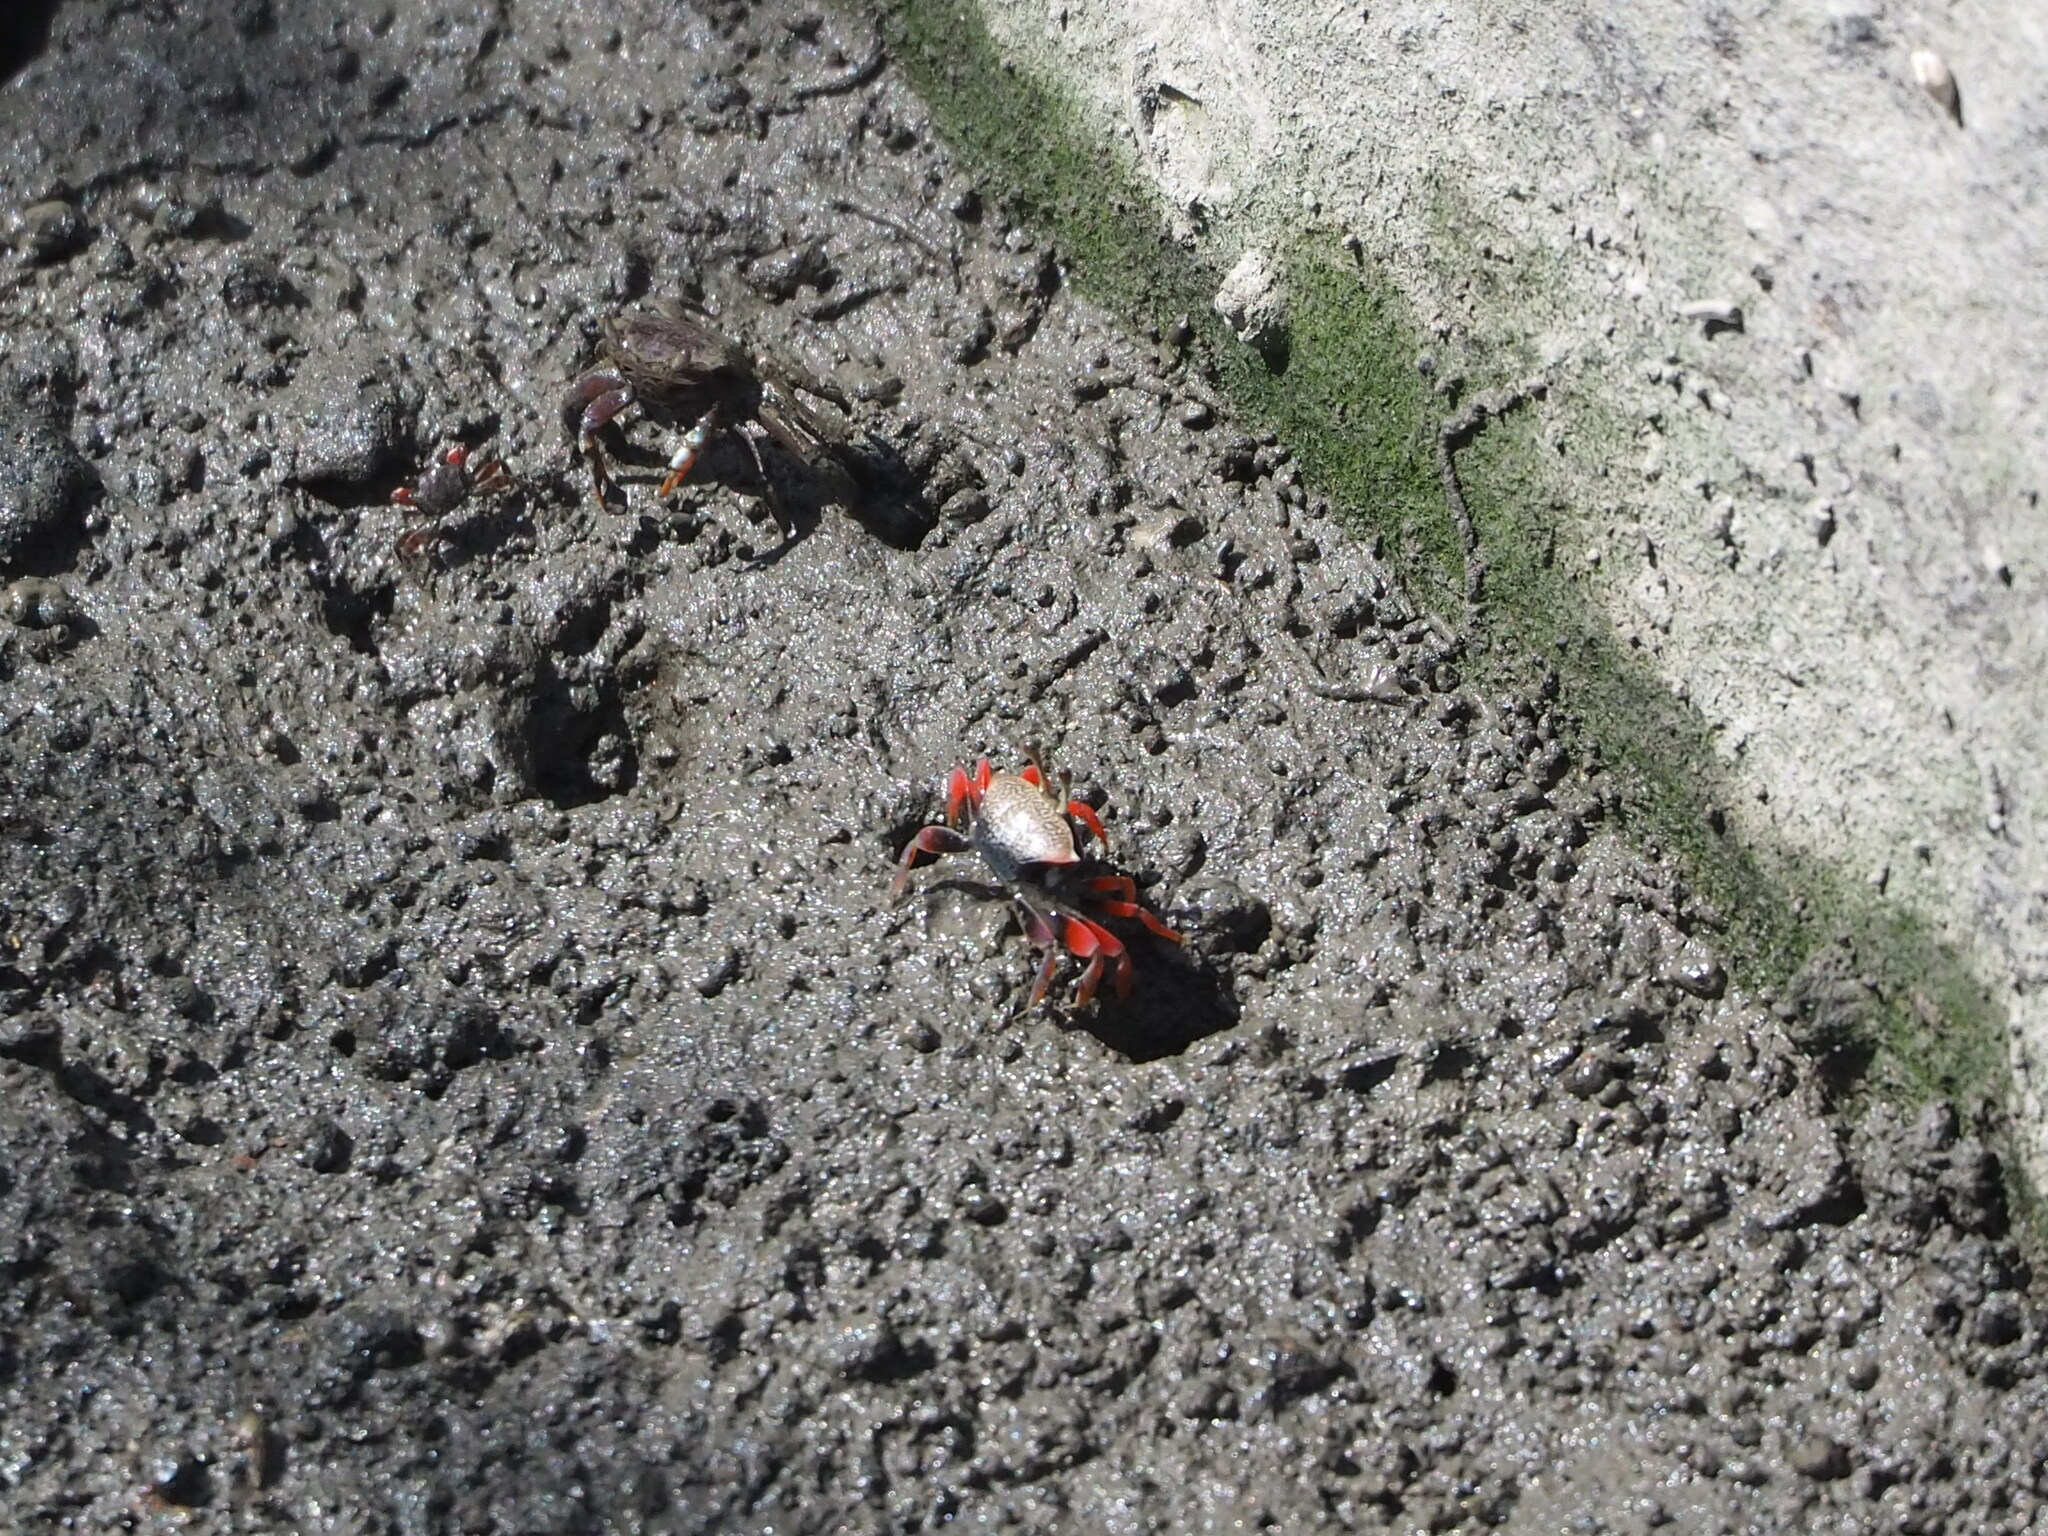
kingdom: Animalia
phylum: Arthropoda
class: Malacostraca
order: Decapoda
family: Ocypodidae
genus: Tubuca
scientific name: Tubuca arcuata
